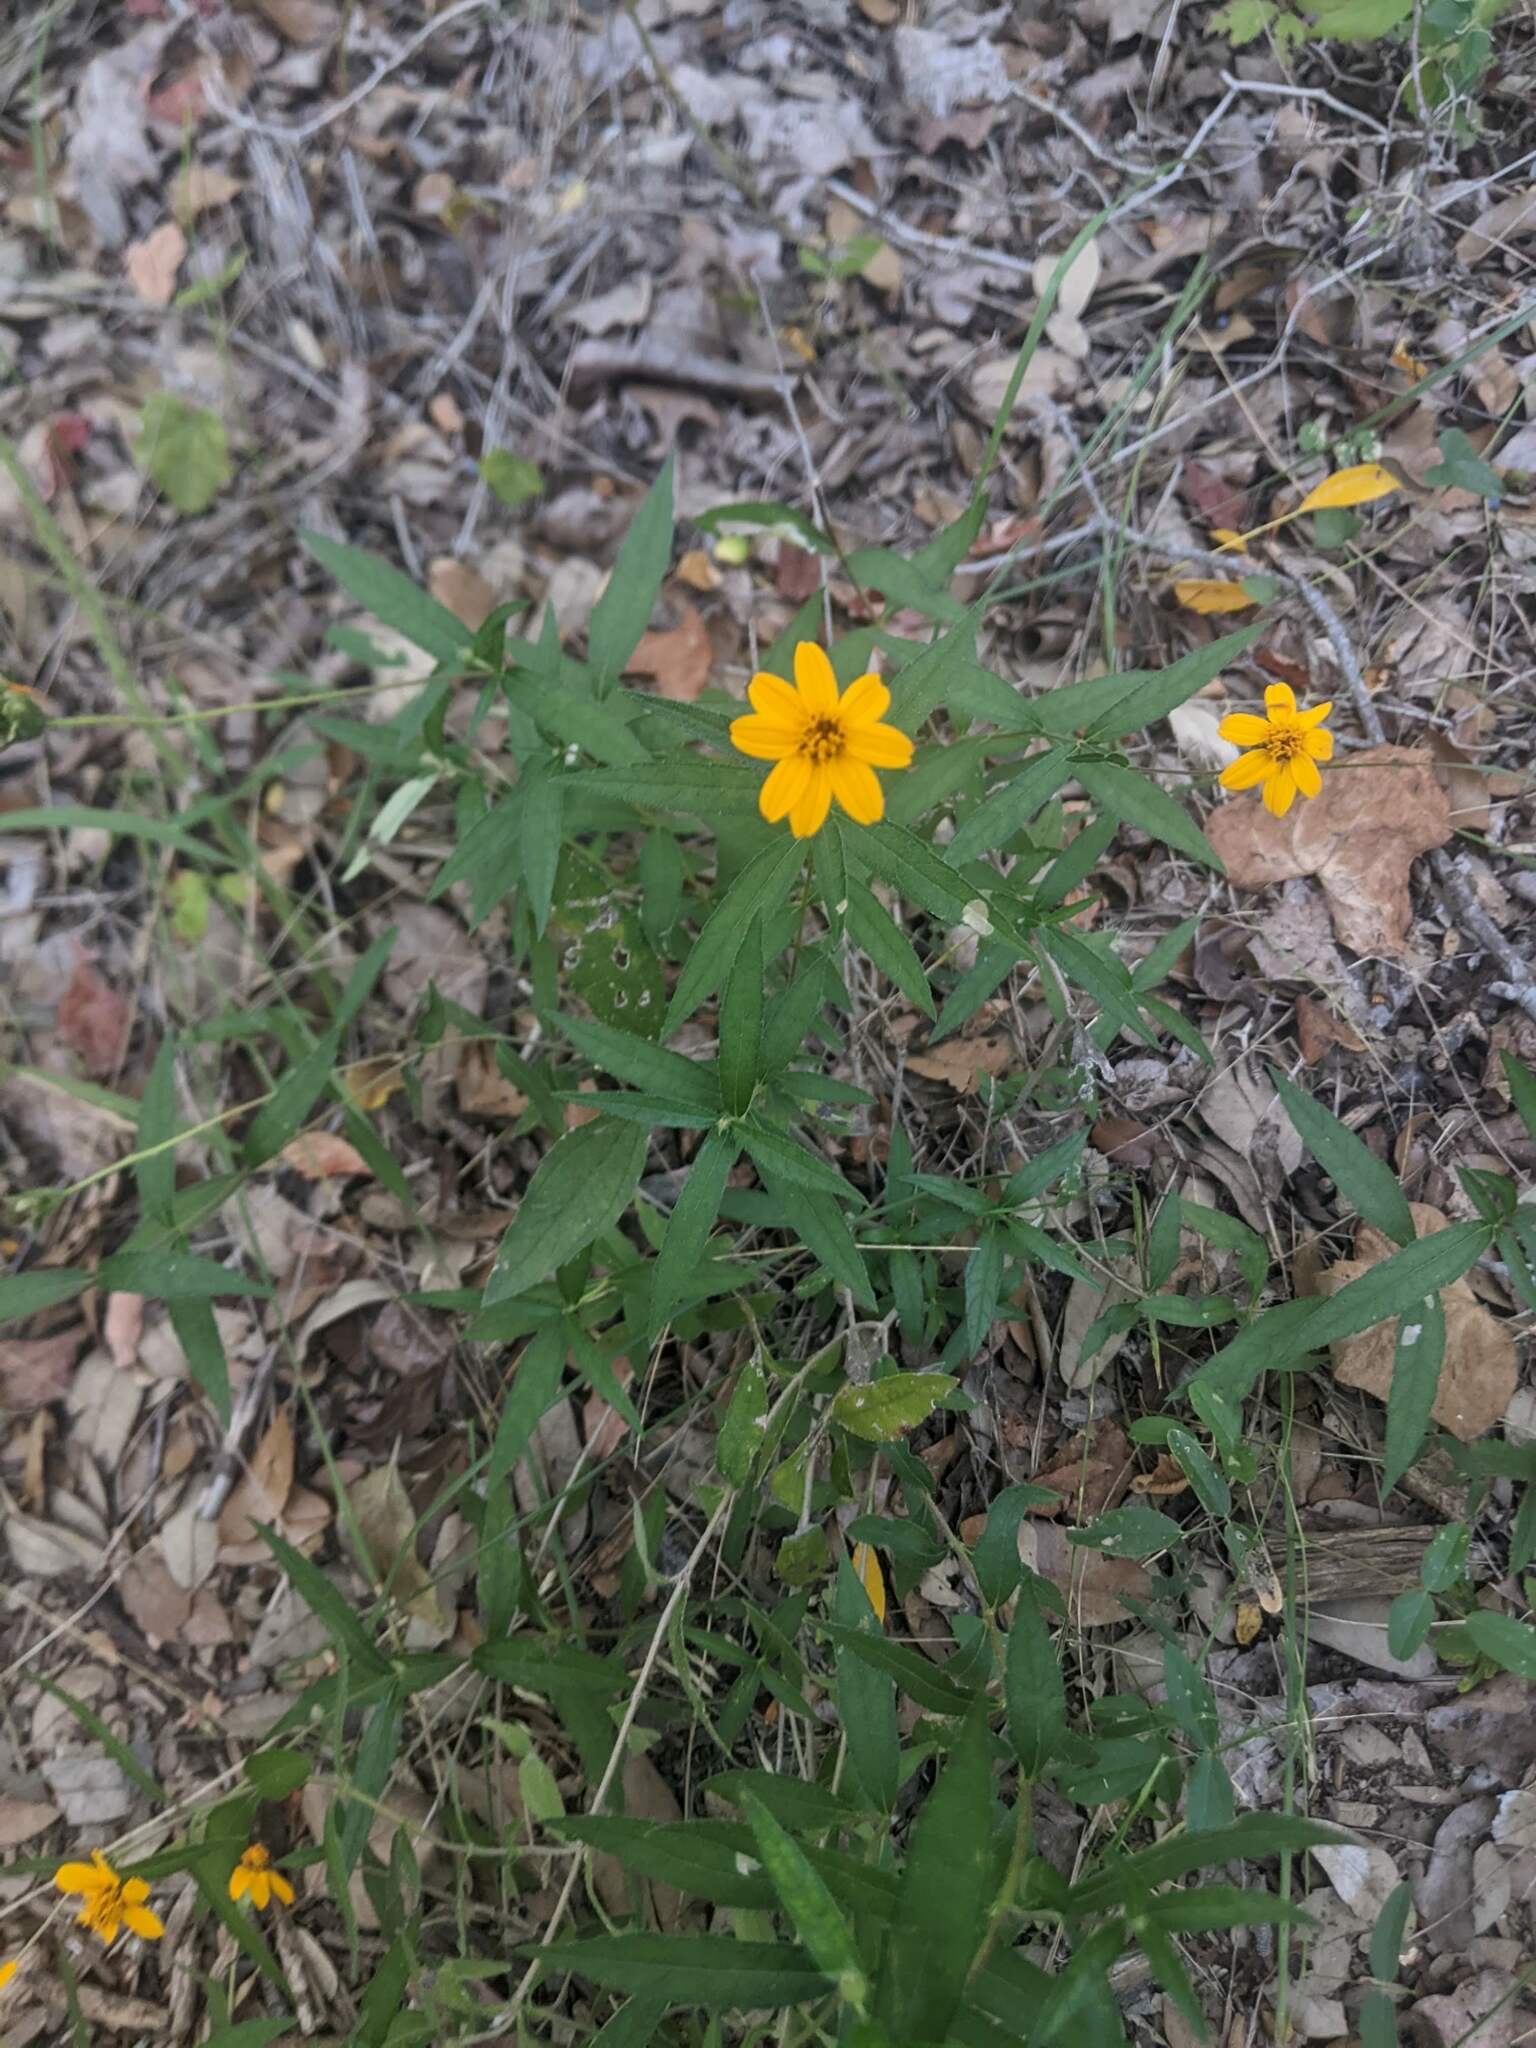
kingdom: Plantae
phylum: Tracheophyta
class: Magnoliopsida
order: Asterales
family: Asteraceae
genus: Wedelia
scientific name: Wedelia acapulcensis
